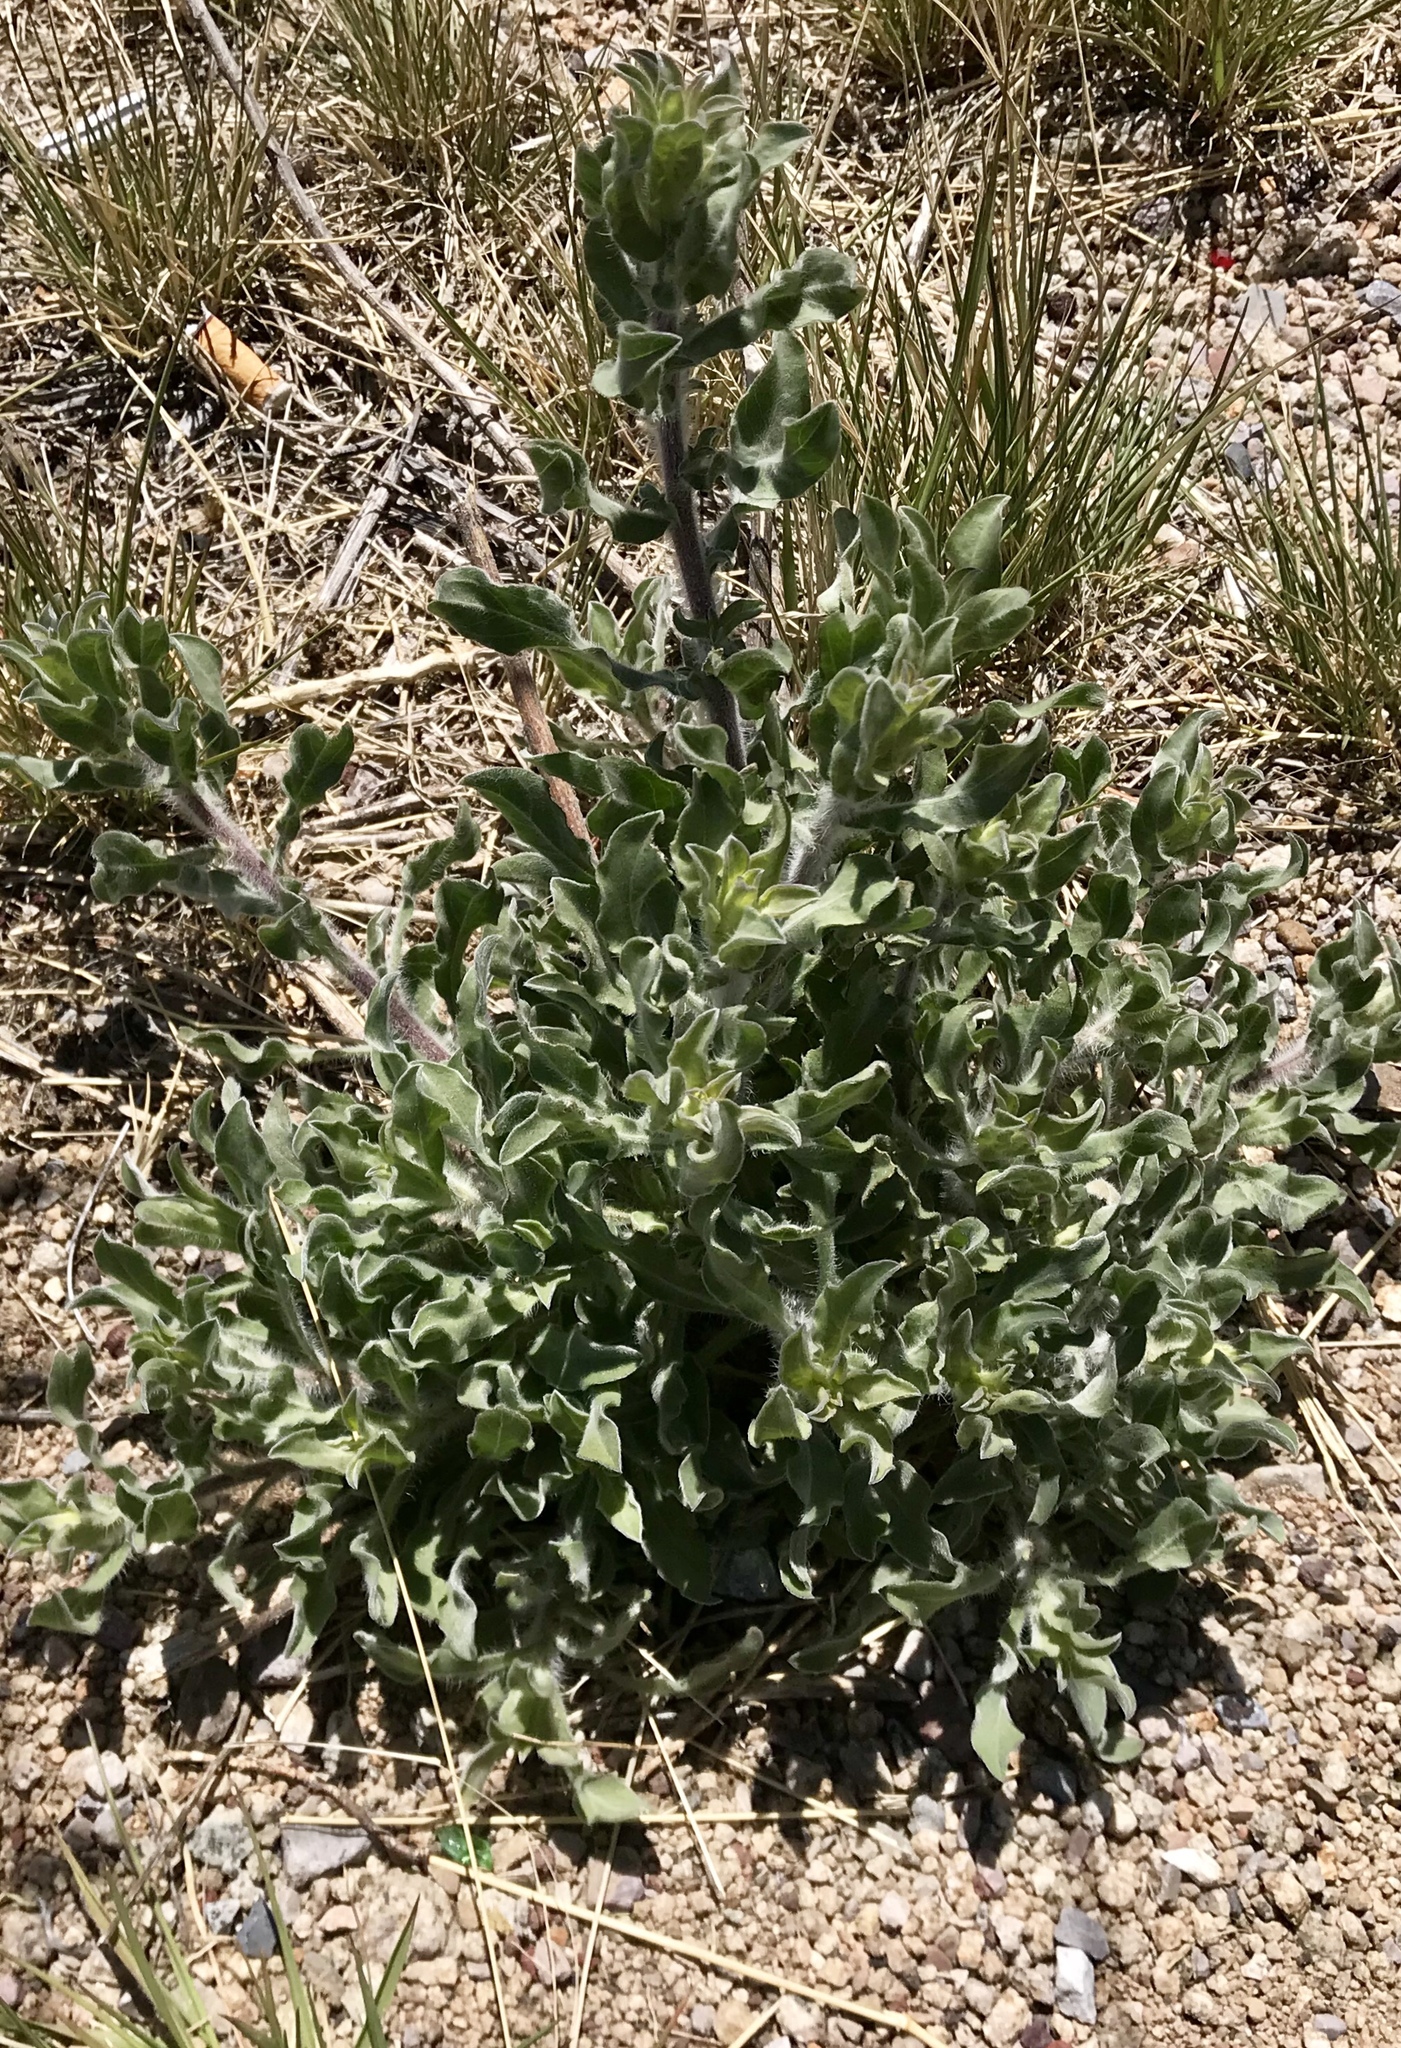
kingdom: Plantae
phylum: Tracheophyta
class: Magnoliopsida
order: Asterales
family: Asteraceae
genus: Heterotheca
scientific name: Heterotheca hirsutissima
